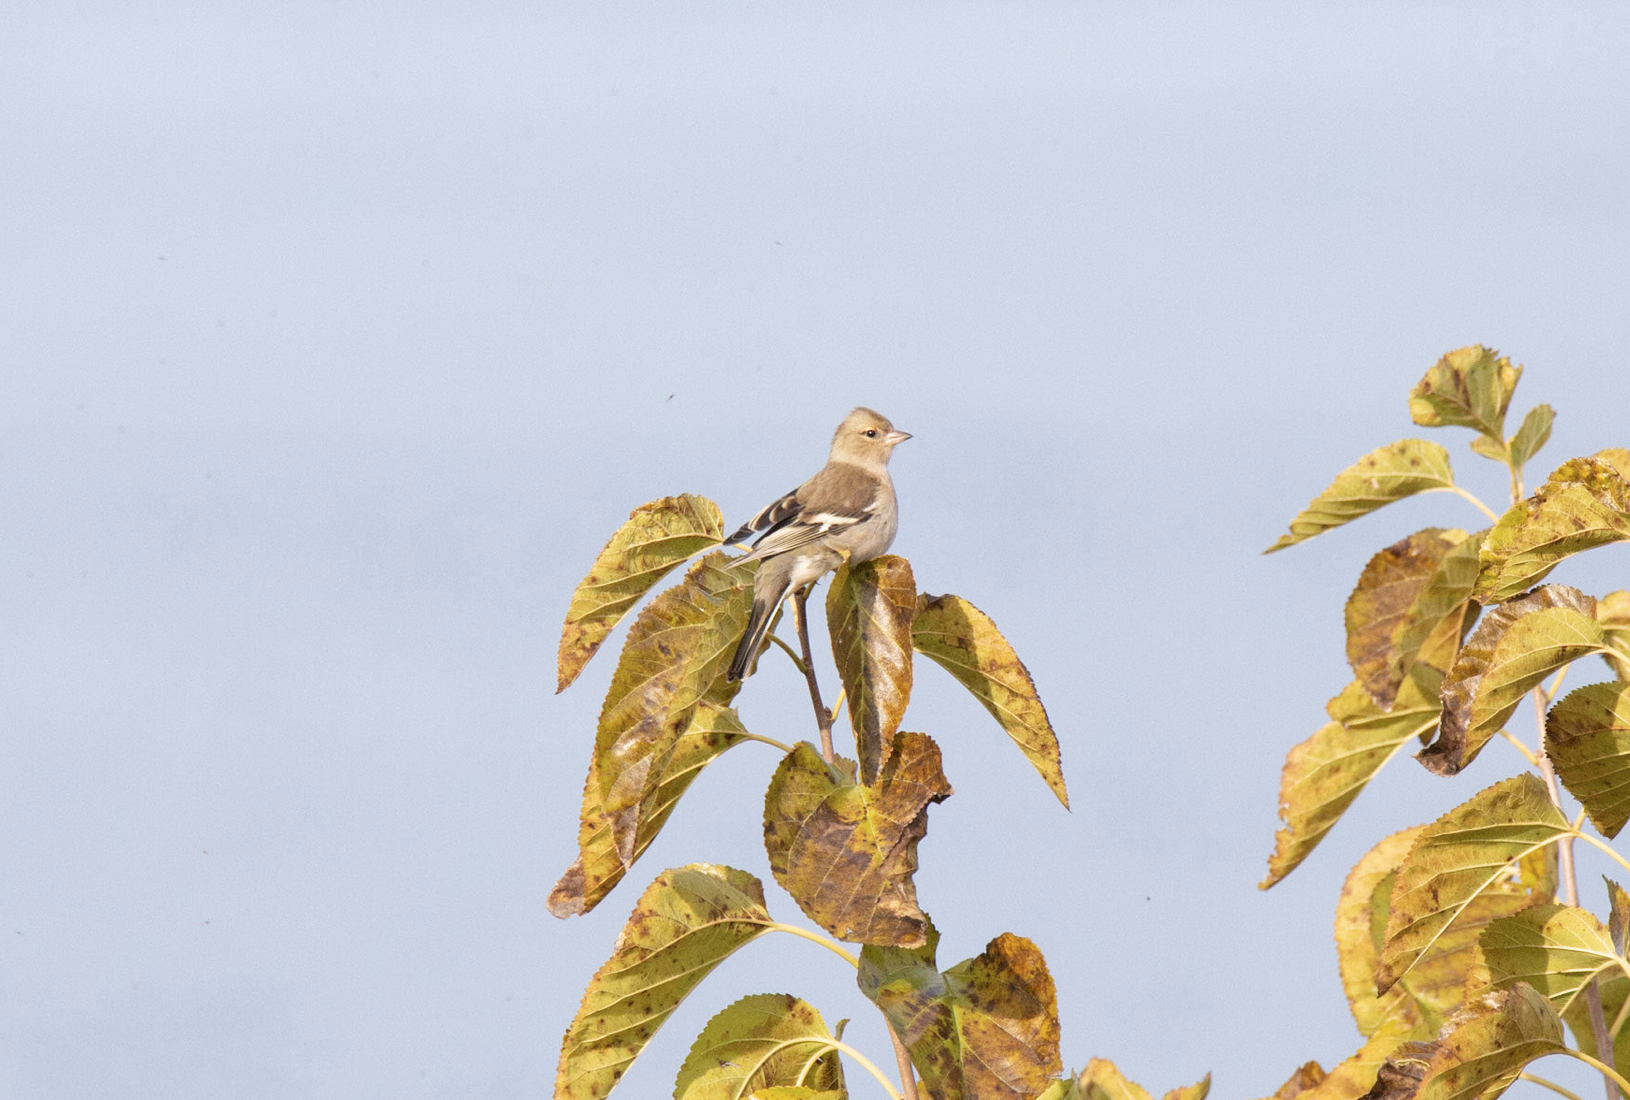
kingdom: Animalia
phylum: Chordata
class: Aves
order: Passeriformes
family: Fringillidae
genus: Fringilla
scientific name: Fringilla coelebs
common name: Common chaffinch
